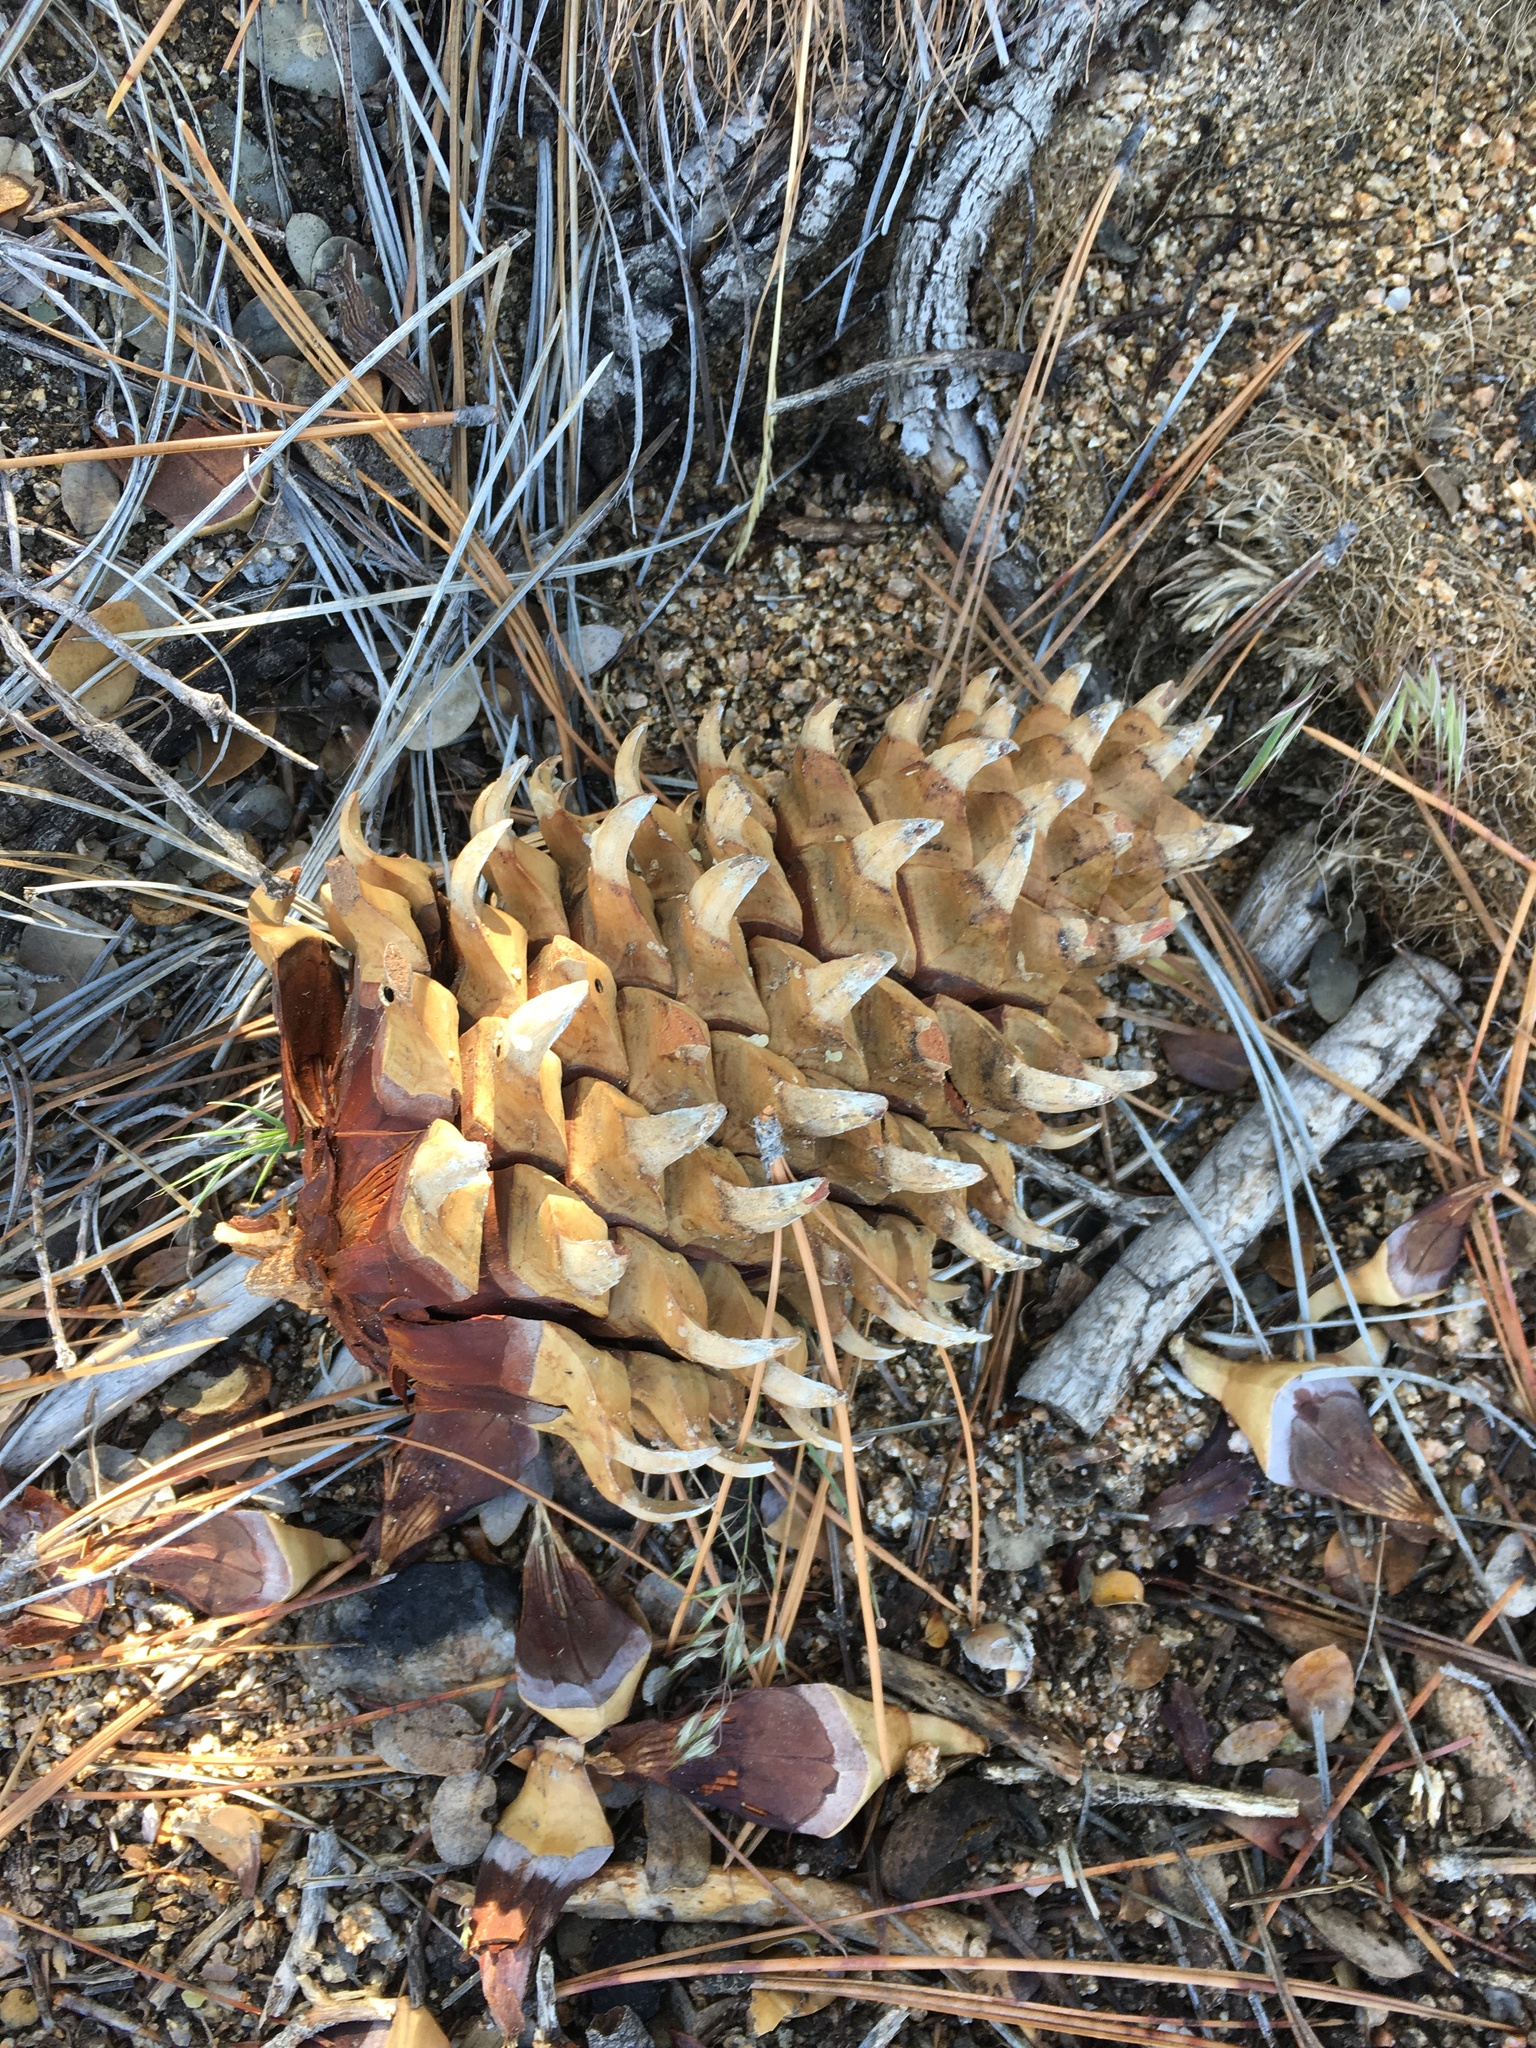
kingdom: Plantae
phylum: Tracheophyta
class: Pinopsida
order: Pinales
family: Pinaceae
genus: Pinus
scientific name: Pinus coulteri
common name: Coulter pine
